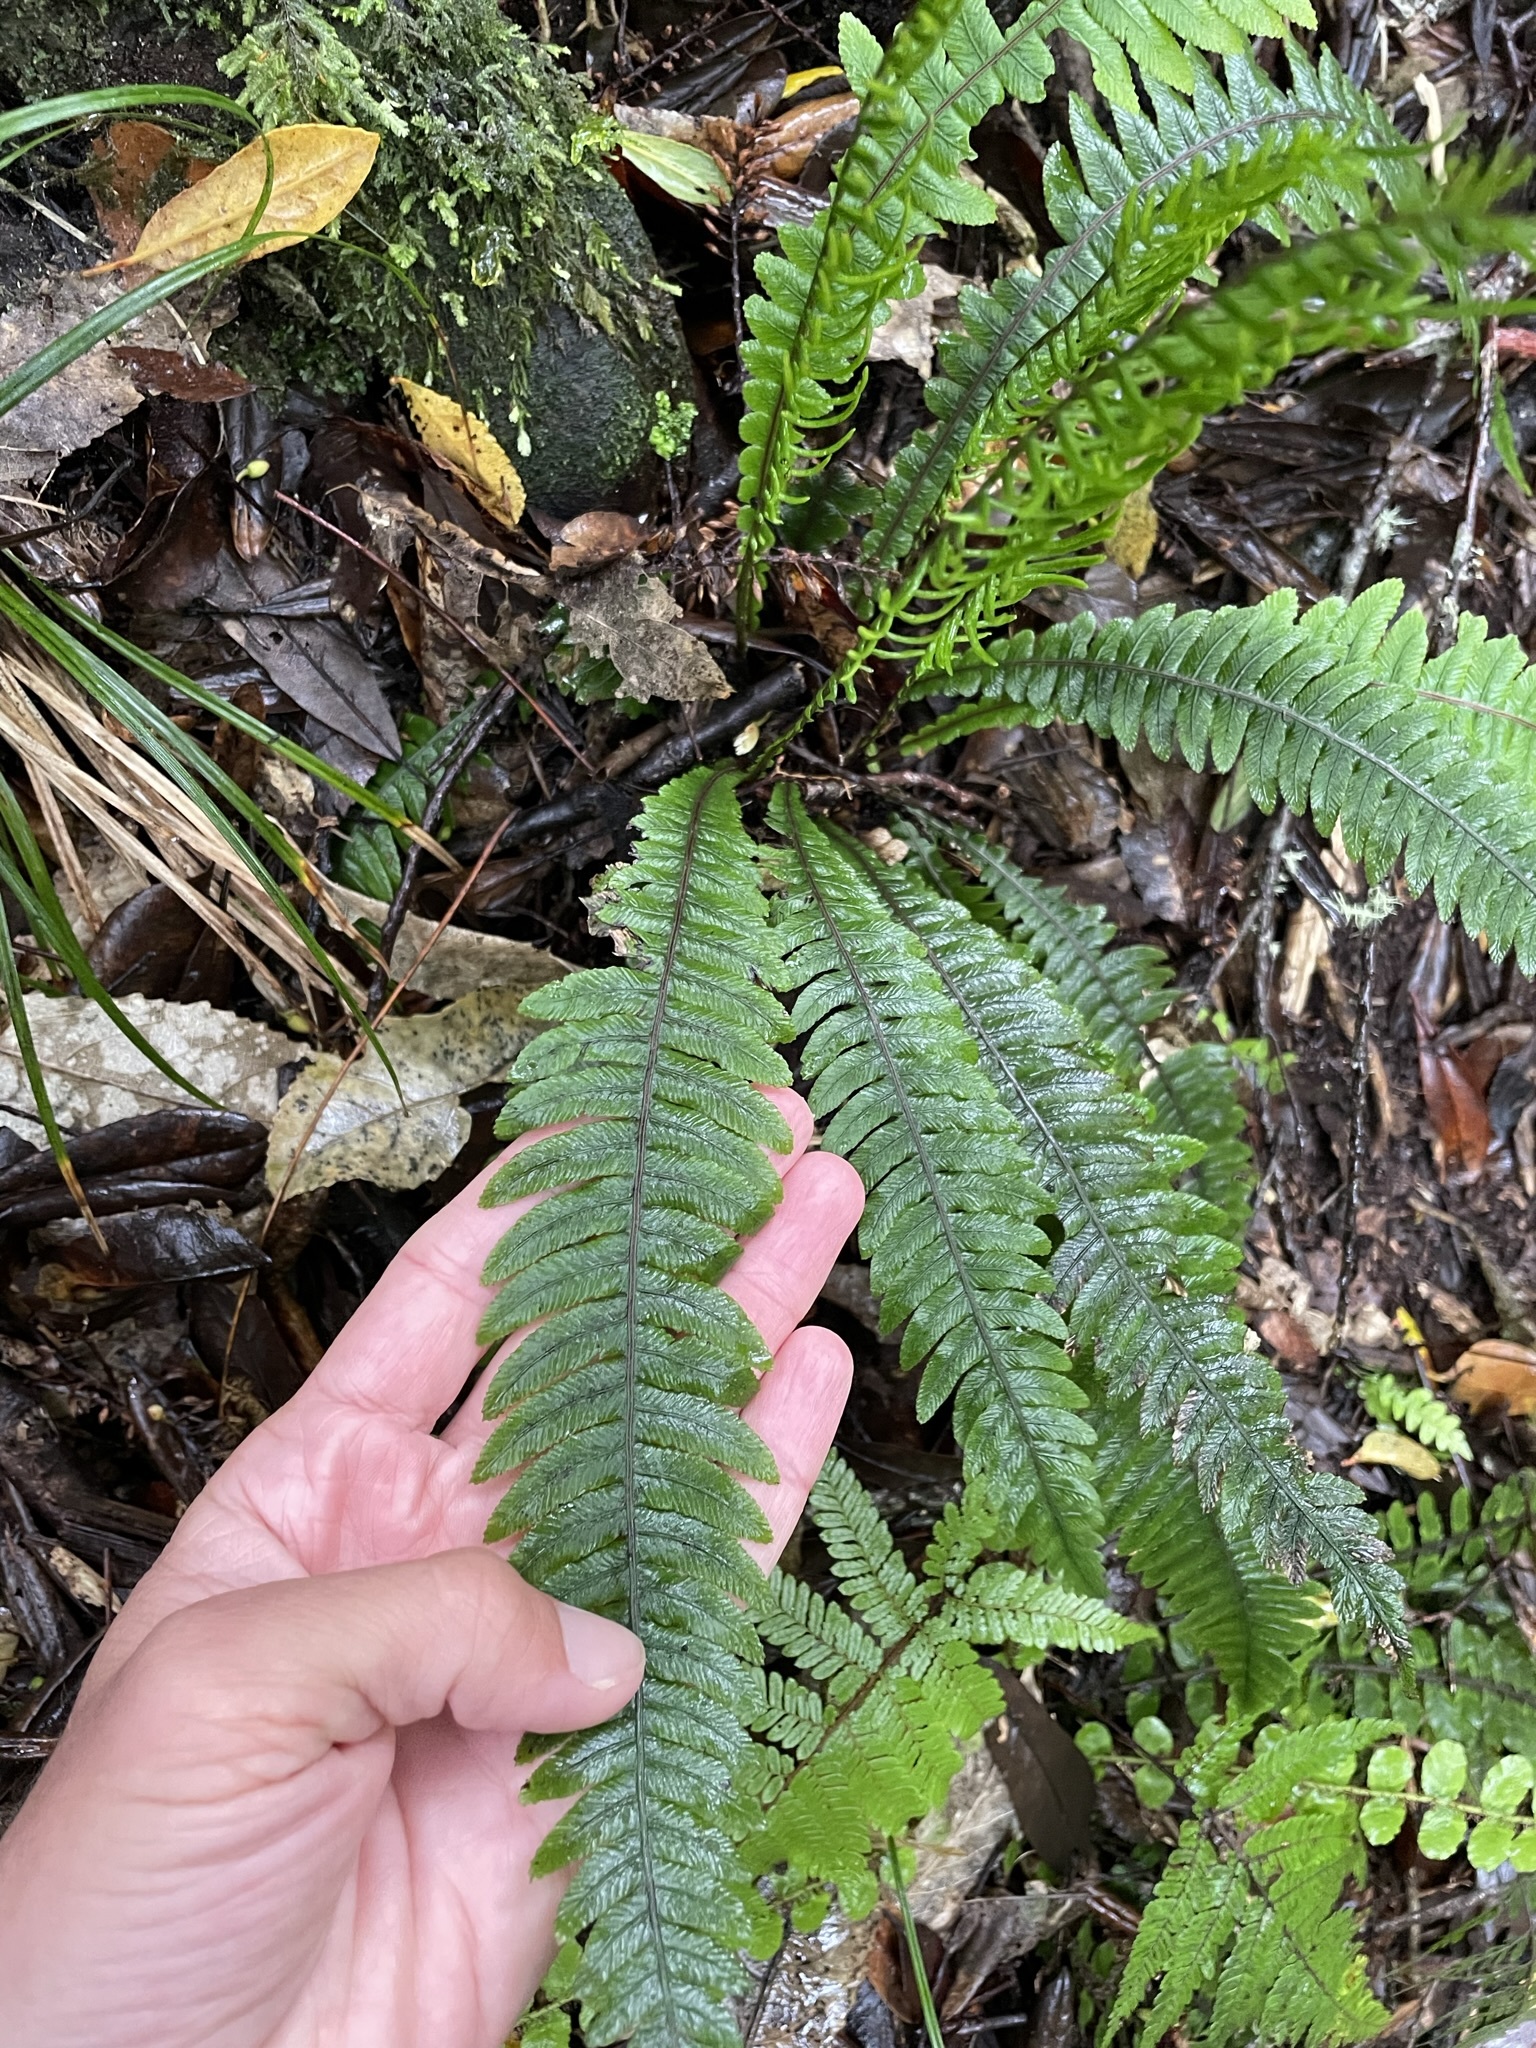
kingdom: Plantae
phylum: Tracheophyta
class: Polypodiopsida
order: Polypodiales
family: Blechnaceae
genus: Austroblechnum
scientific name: Austroblechnum lanceolatum
